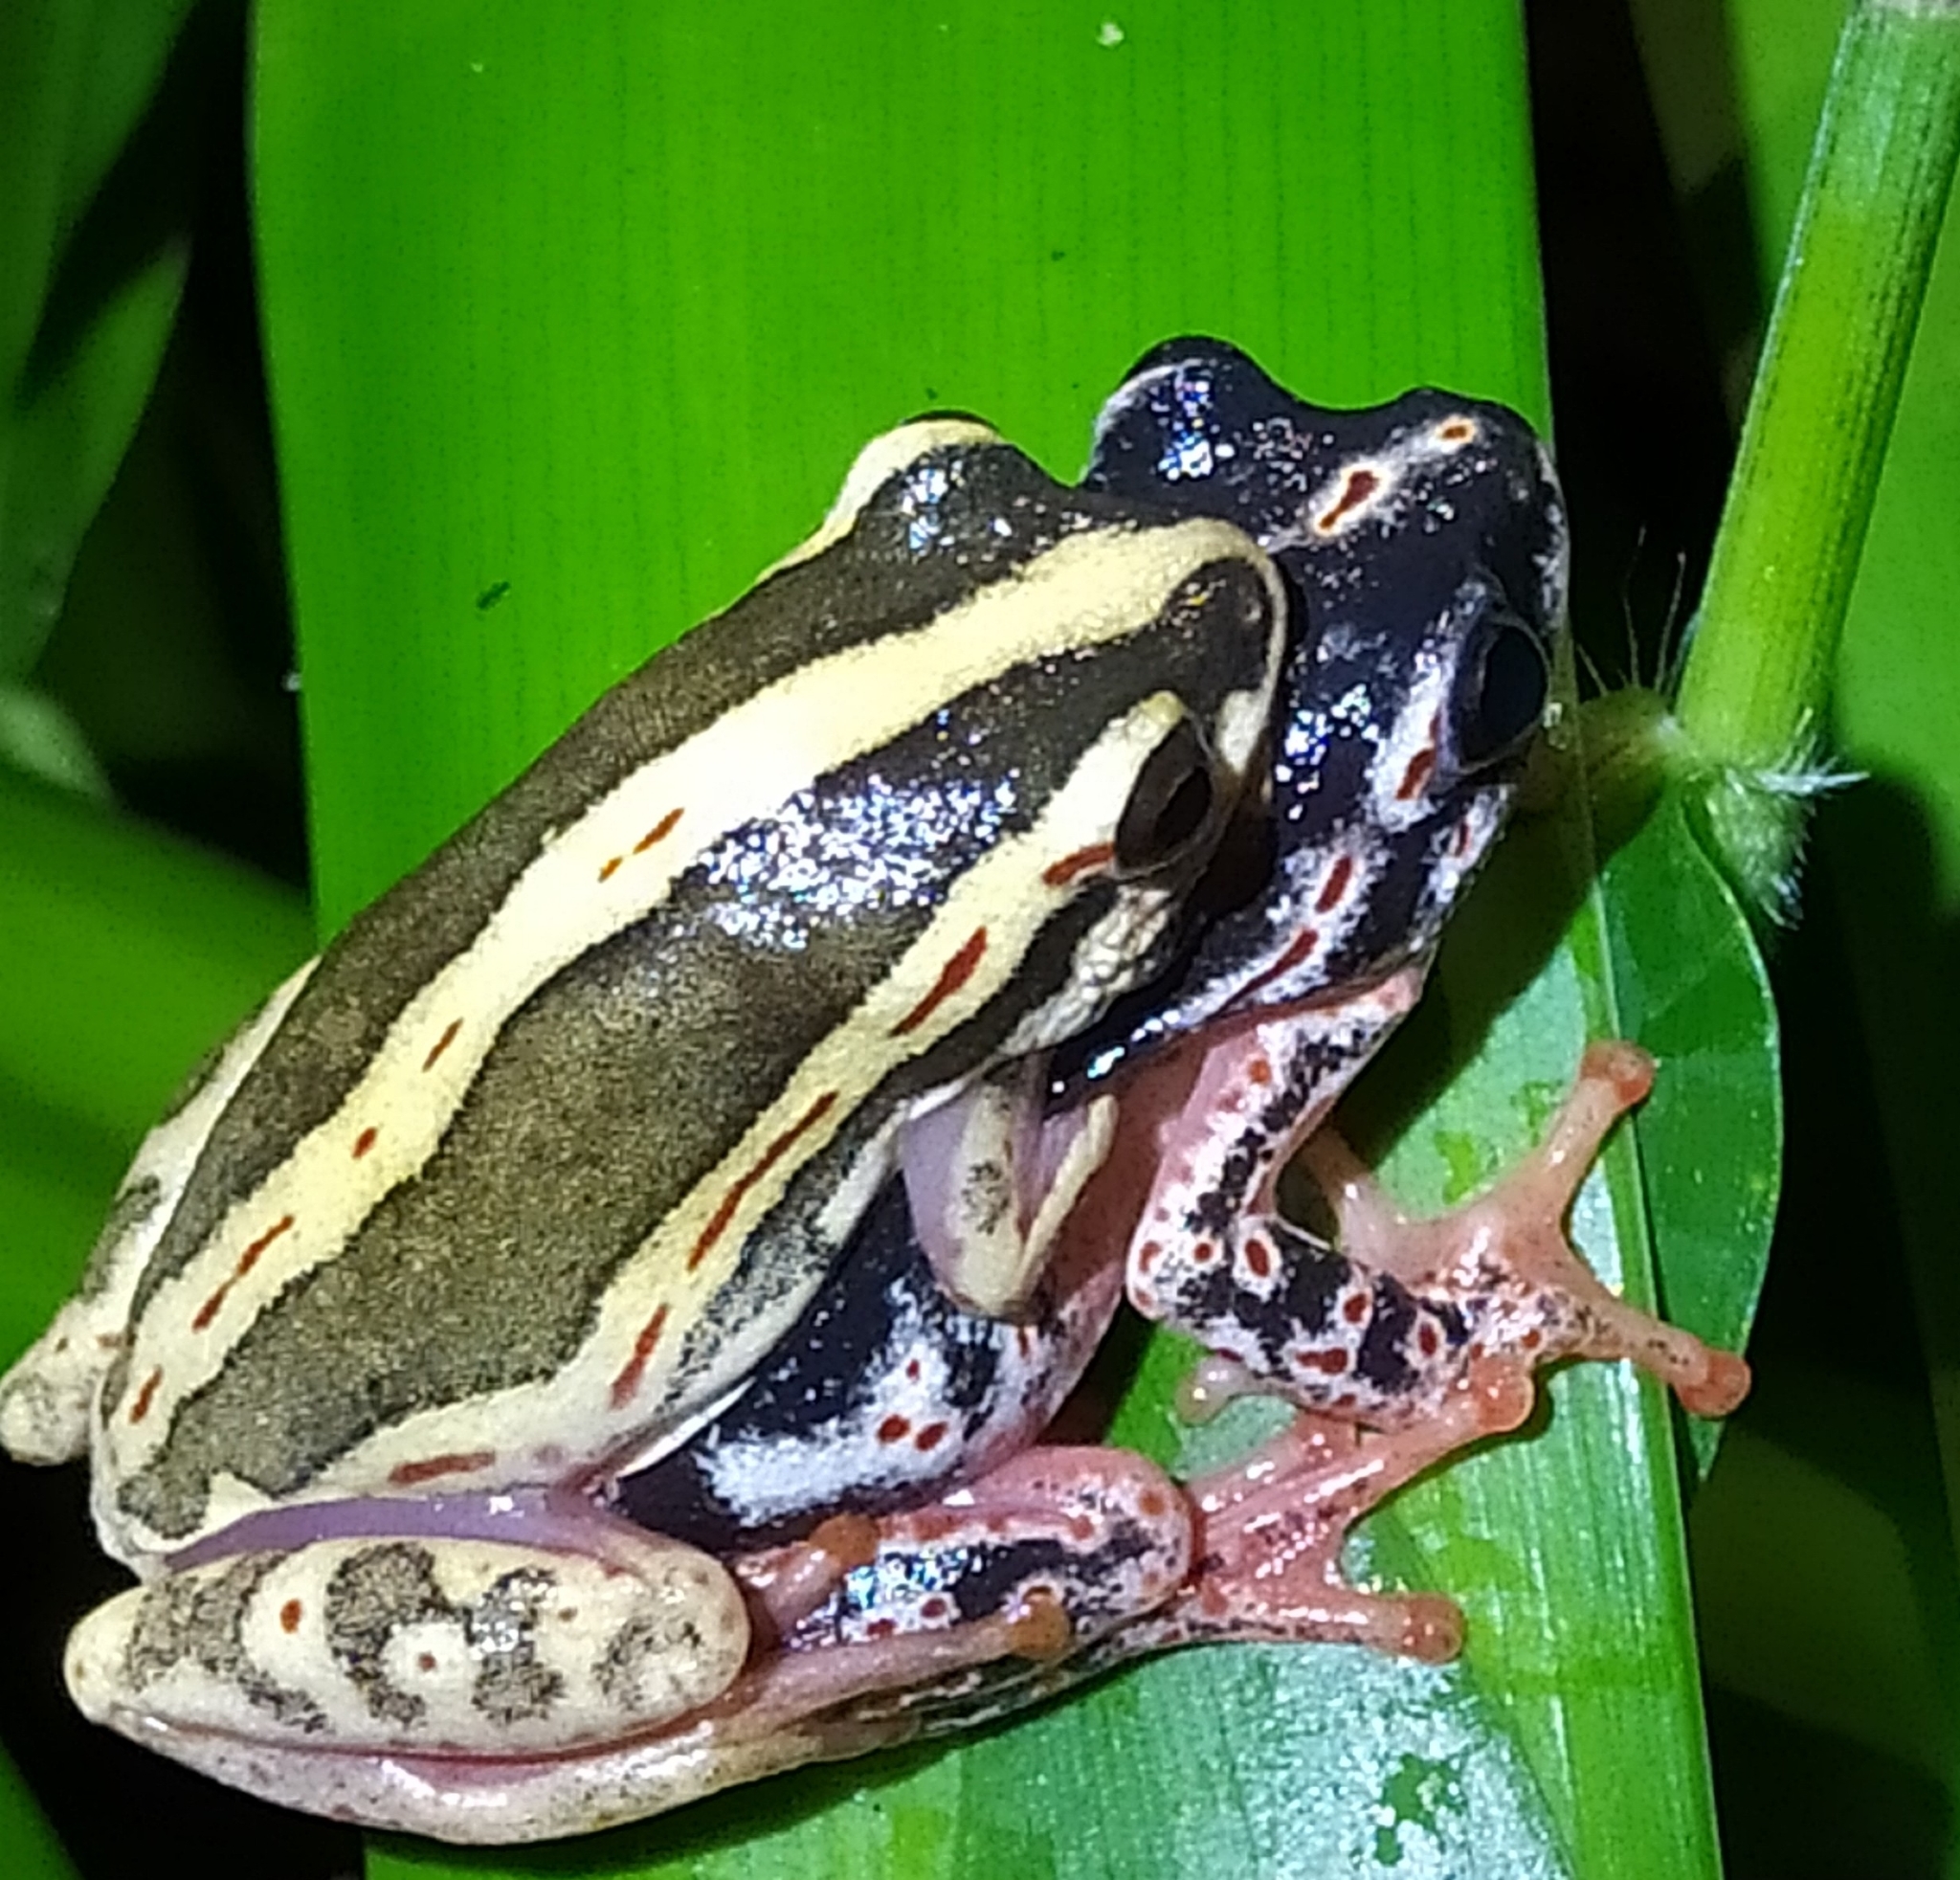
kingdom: Animalia
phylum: Chordata
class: Amphibia
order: Anura
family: Hyperoliidae
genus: Hyperolius
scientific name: Hyperolius marmoratus
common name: Painted reed frog
